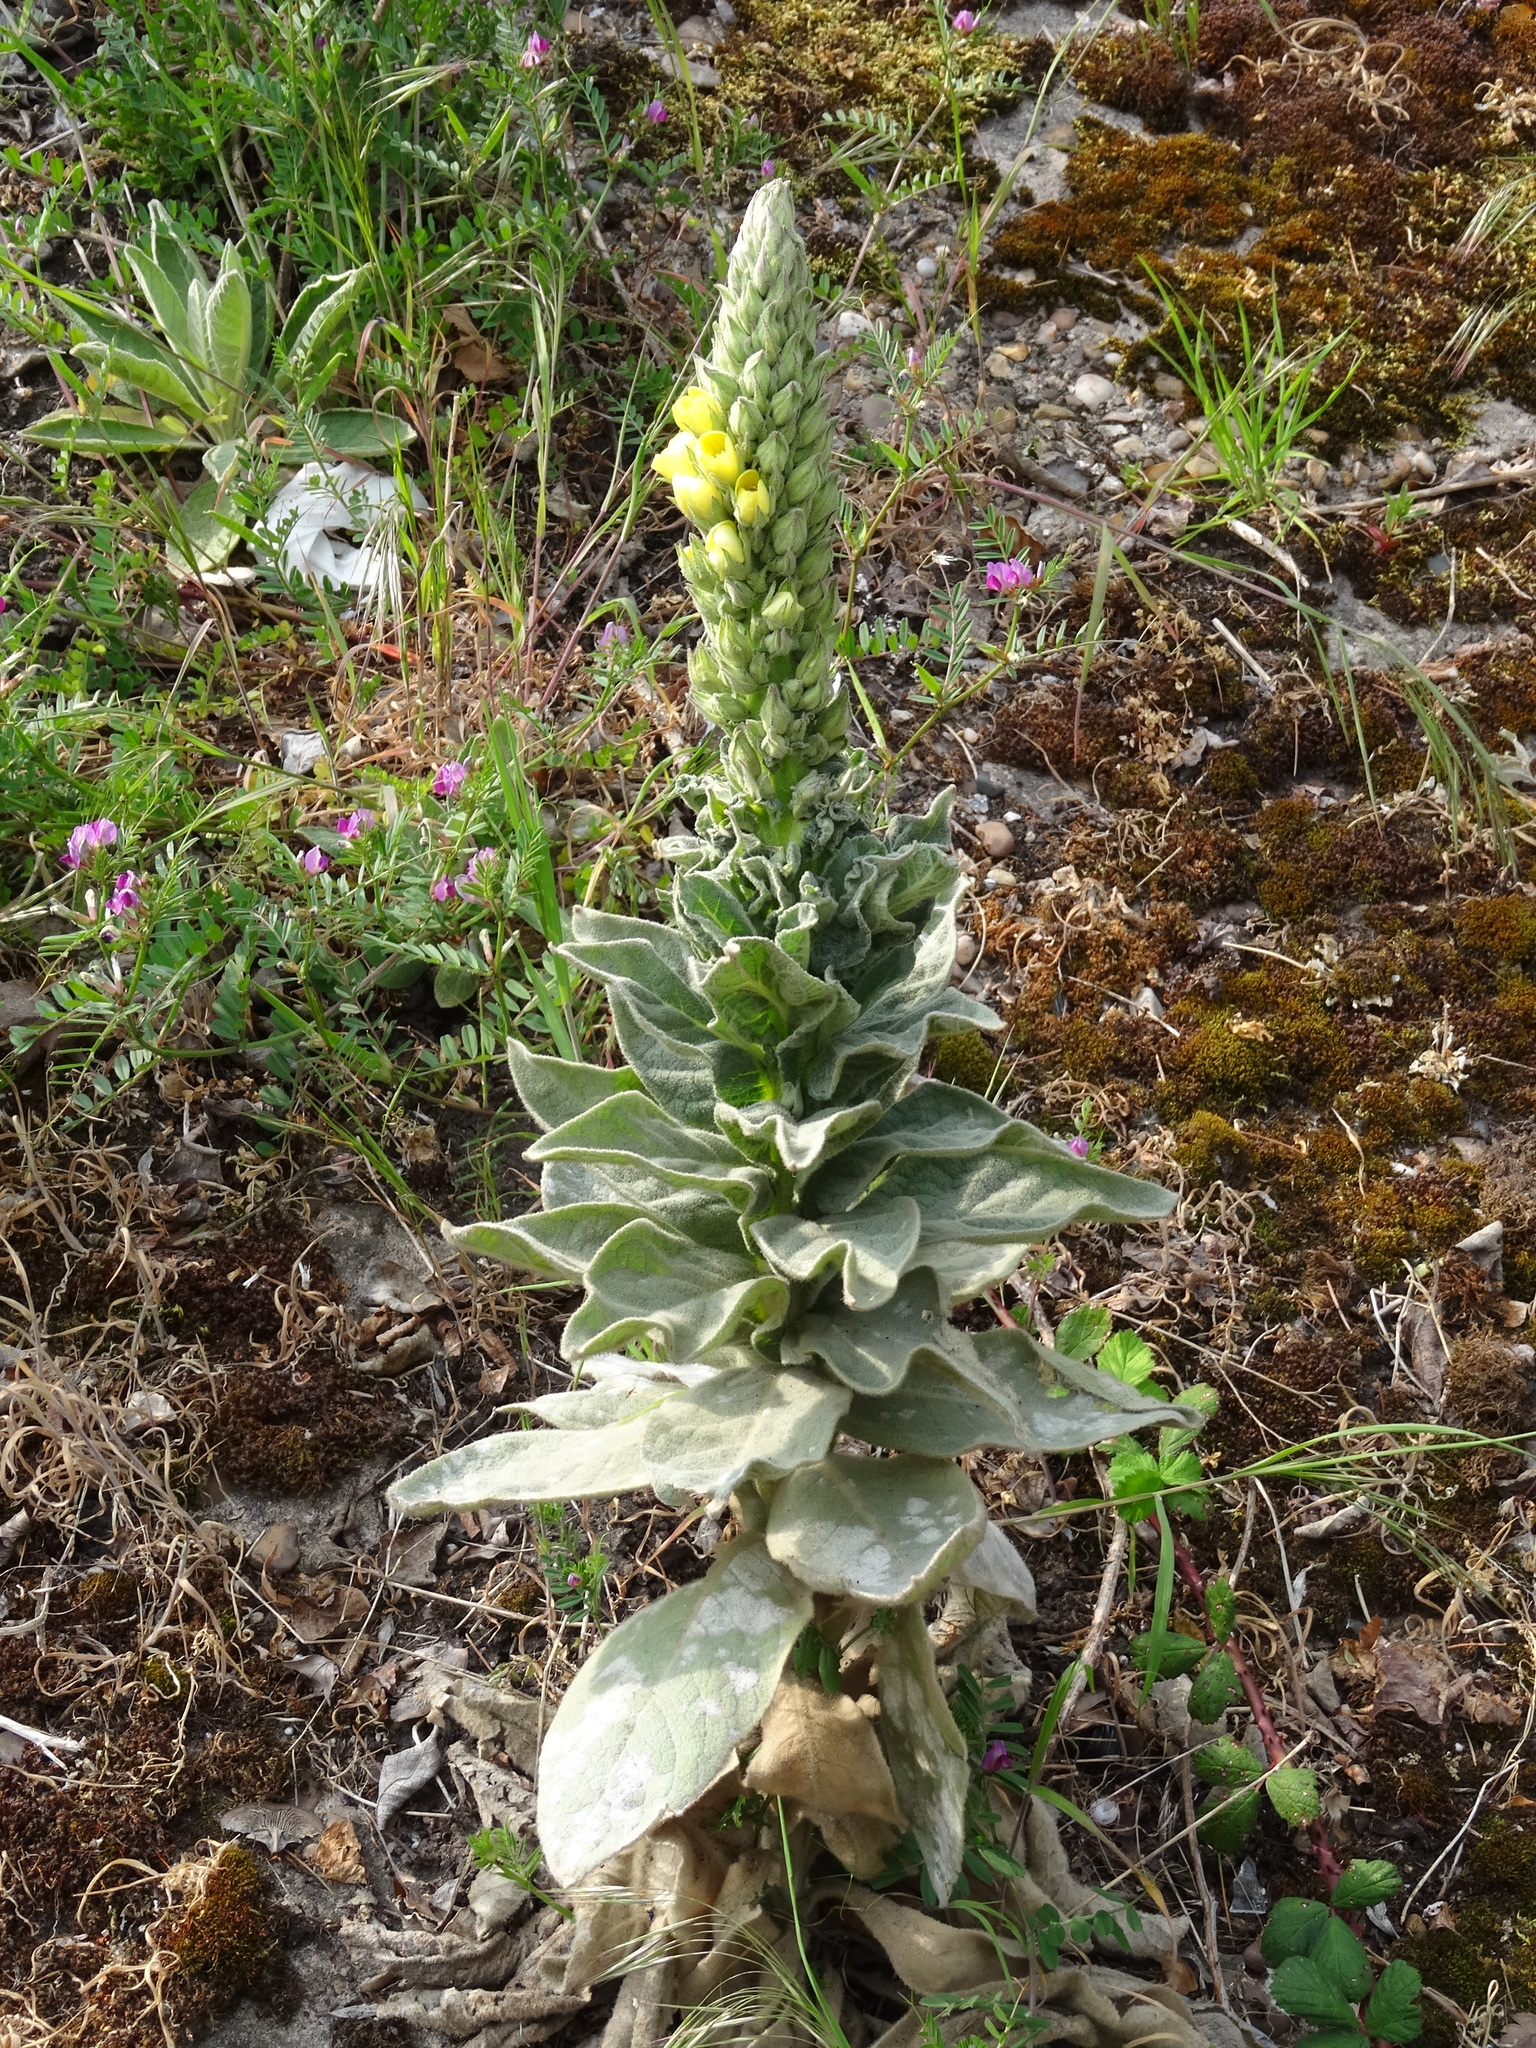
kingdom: Plantae
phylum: Tracheophyta
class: Magnoliopsida
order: Lamiales
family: Scrophulariaceae
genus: Verbascum
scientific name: Verbascum thapsus
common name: Common mullein
